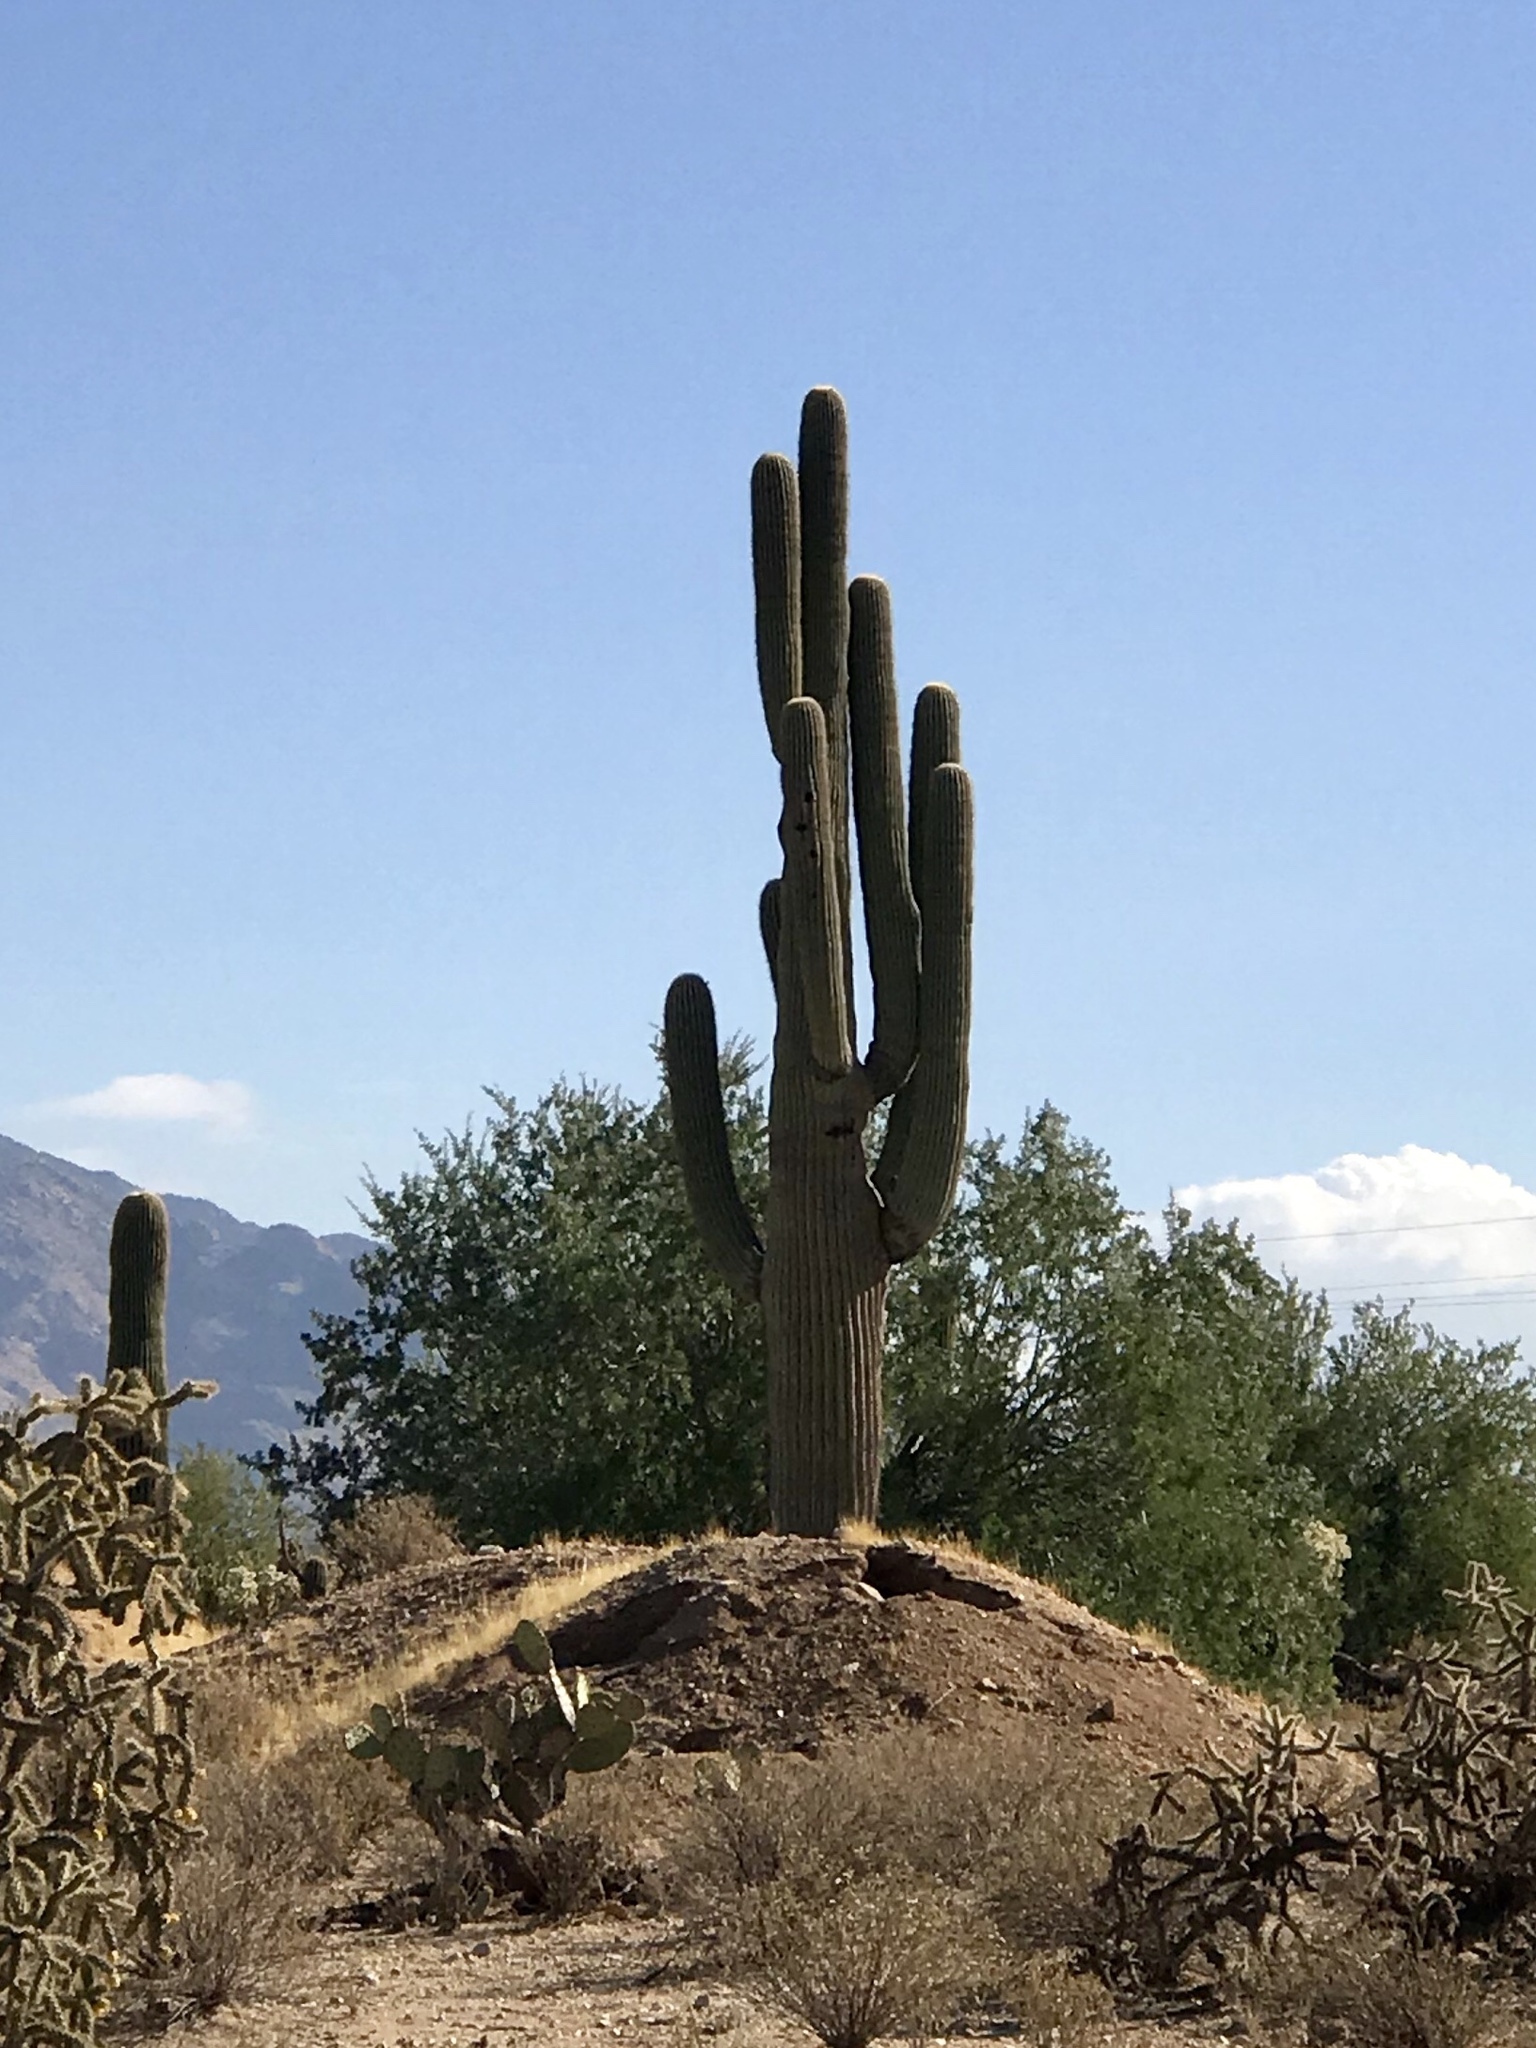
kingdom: Plantae
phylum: Tracheophyta
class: Magnoliopsida
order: Caryophyllales
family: Cactaceae
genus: Carnegiea
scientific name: Carnegiea gigantea
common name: Saguaro
